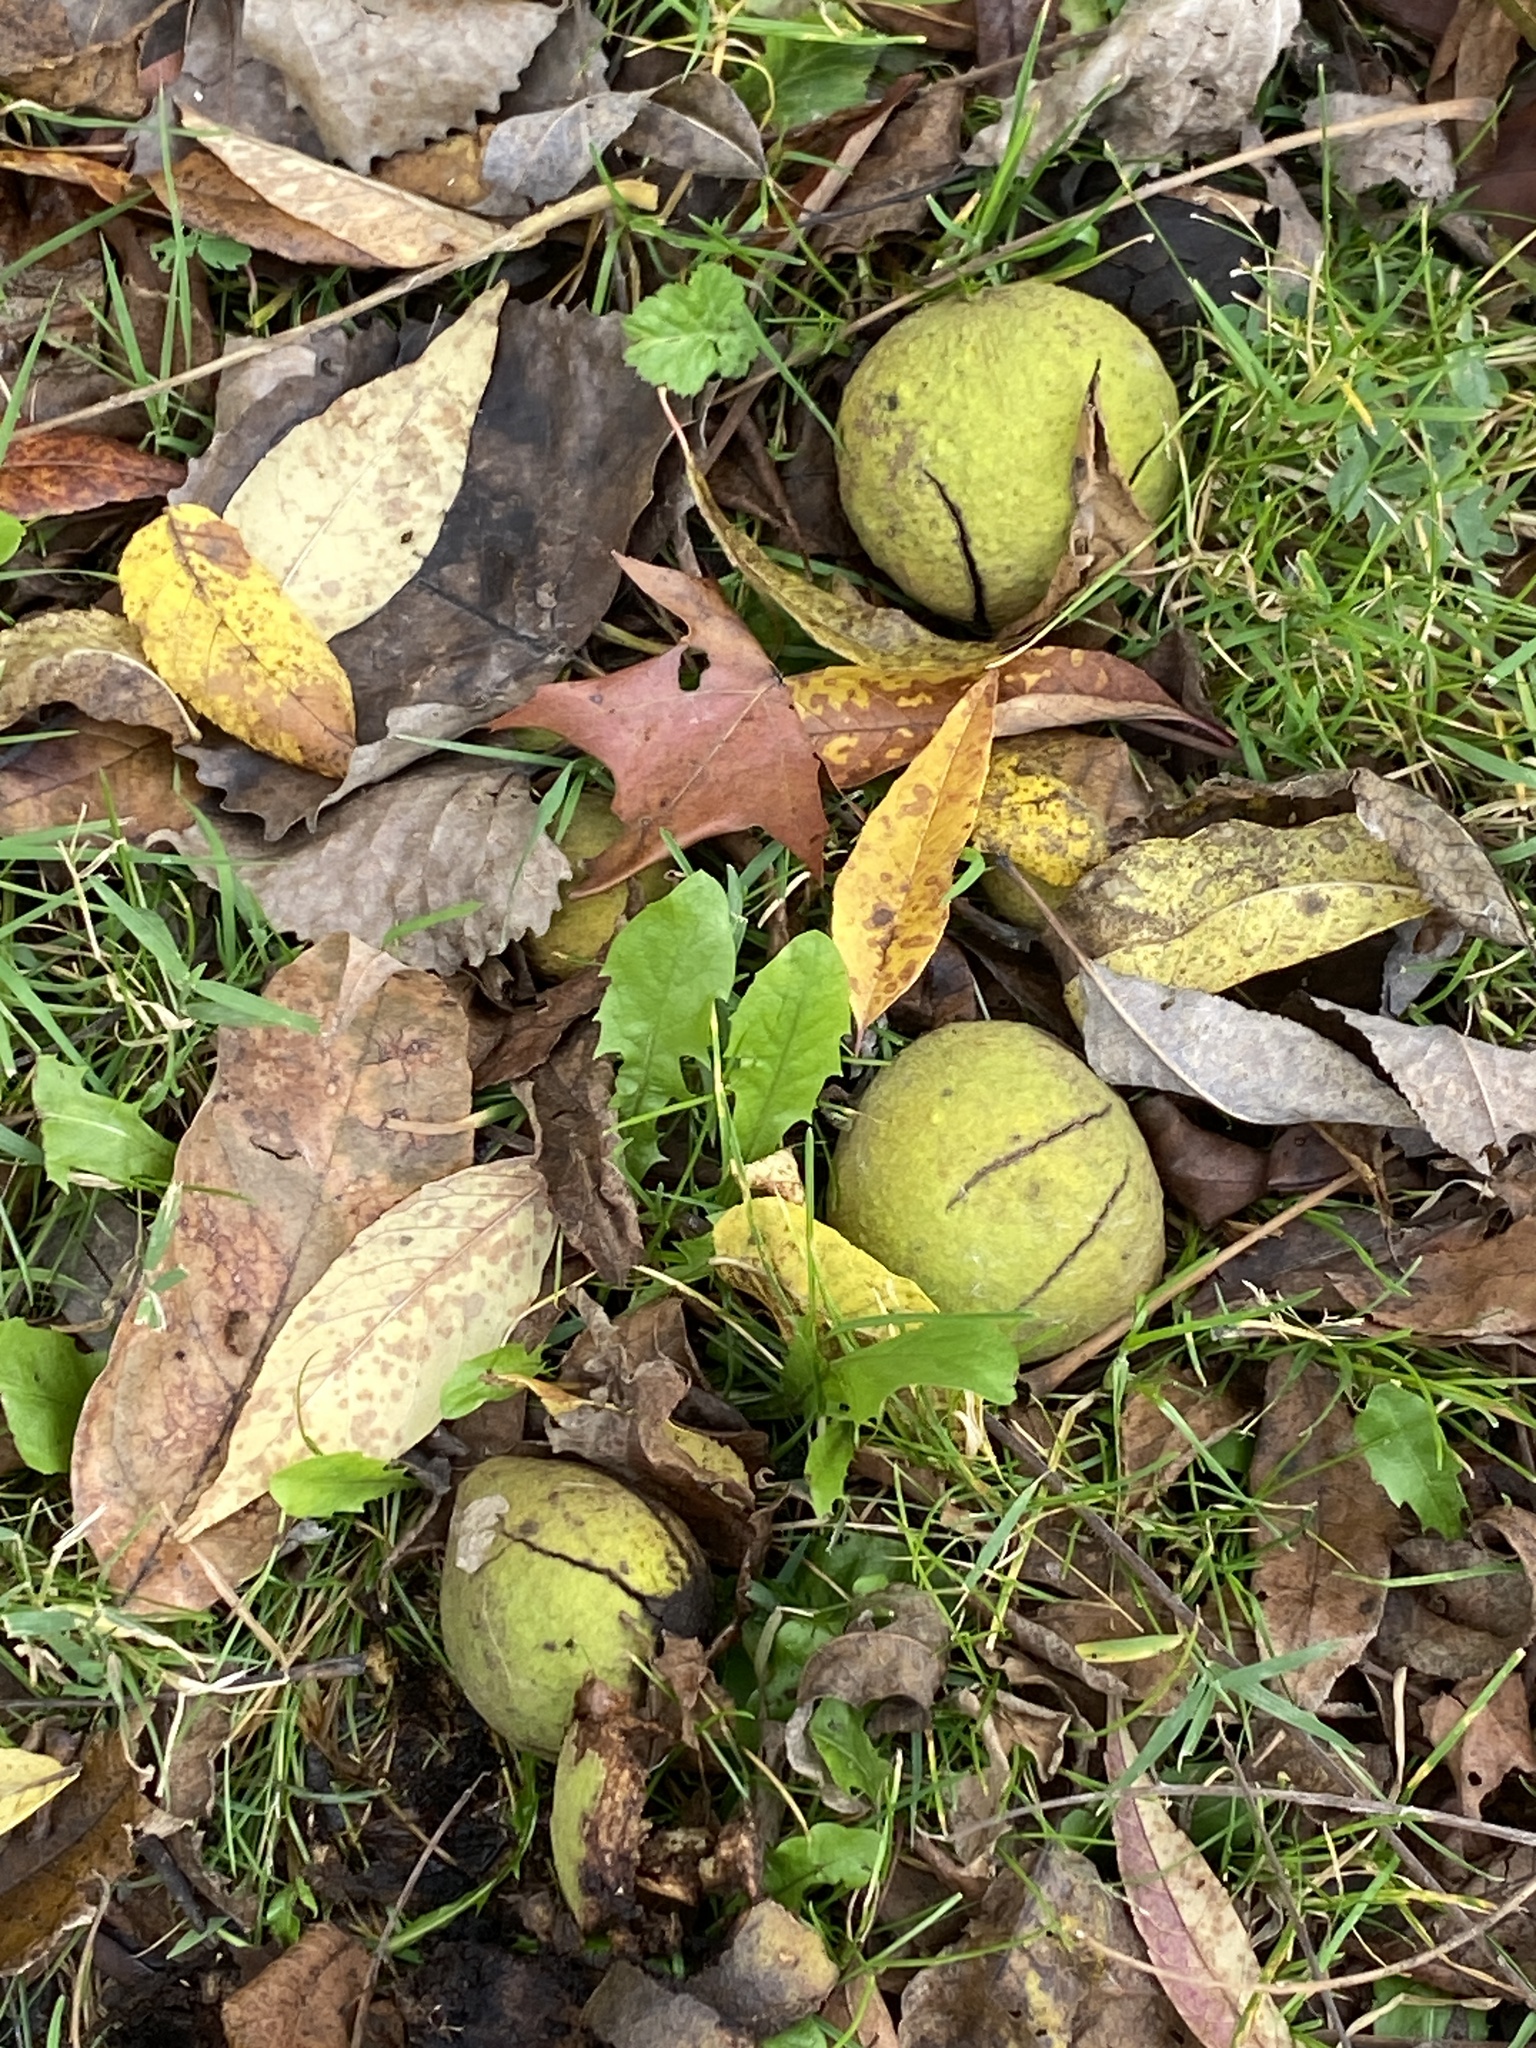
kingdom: Plantae
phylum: Tracheophyta
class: Magnoliopsida
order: Fagales
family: Juglandaceae
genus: Juglans
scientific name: Juglans nigra
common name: Black walnut
